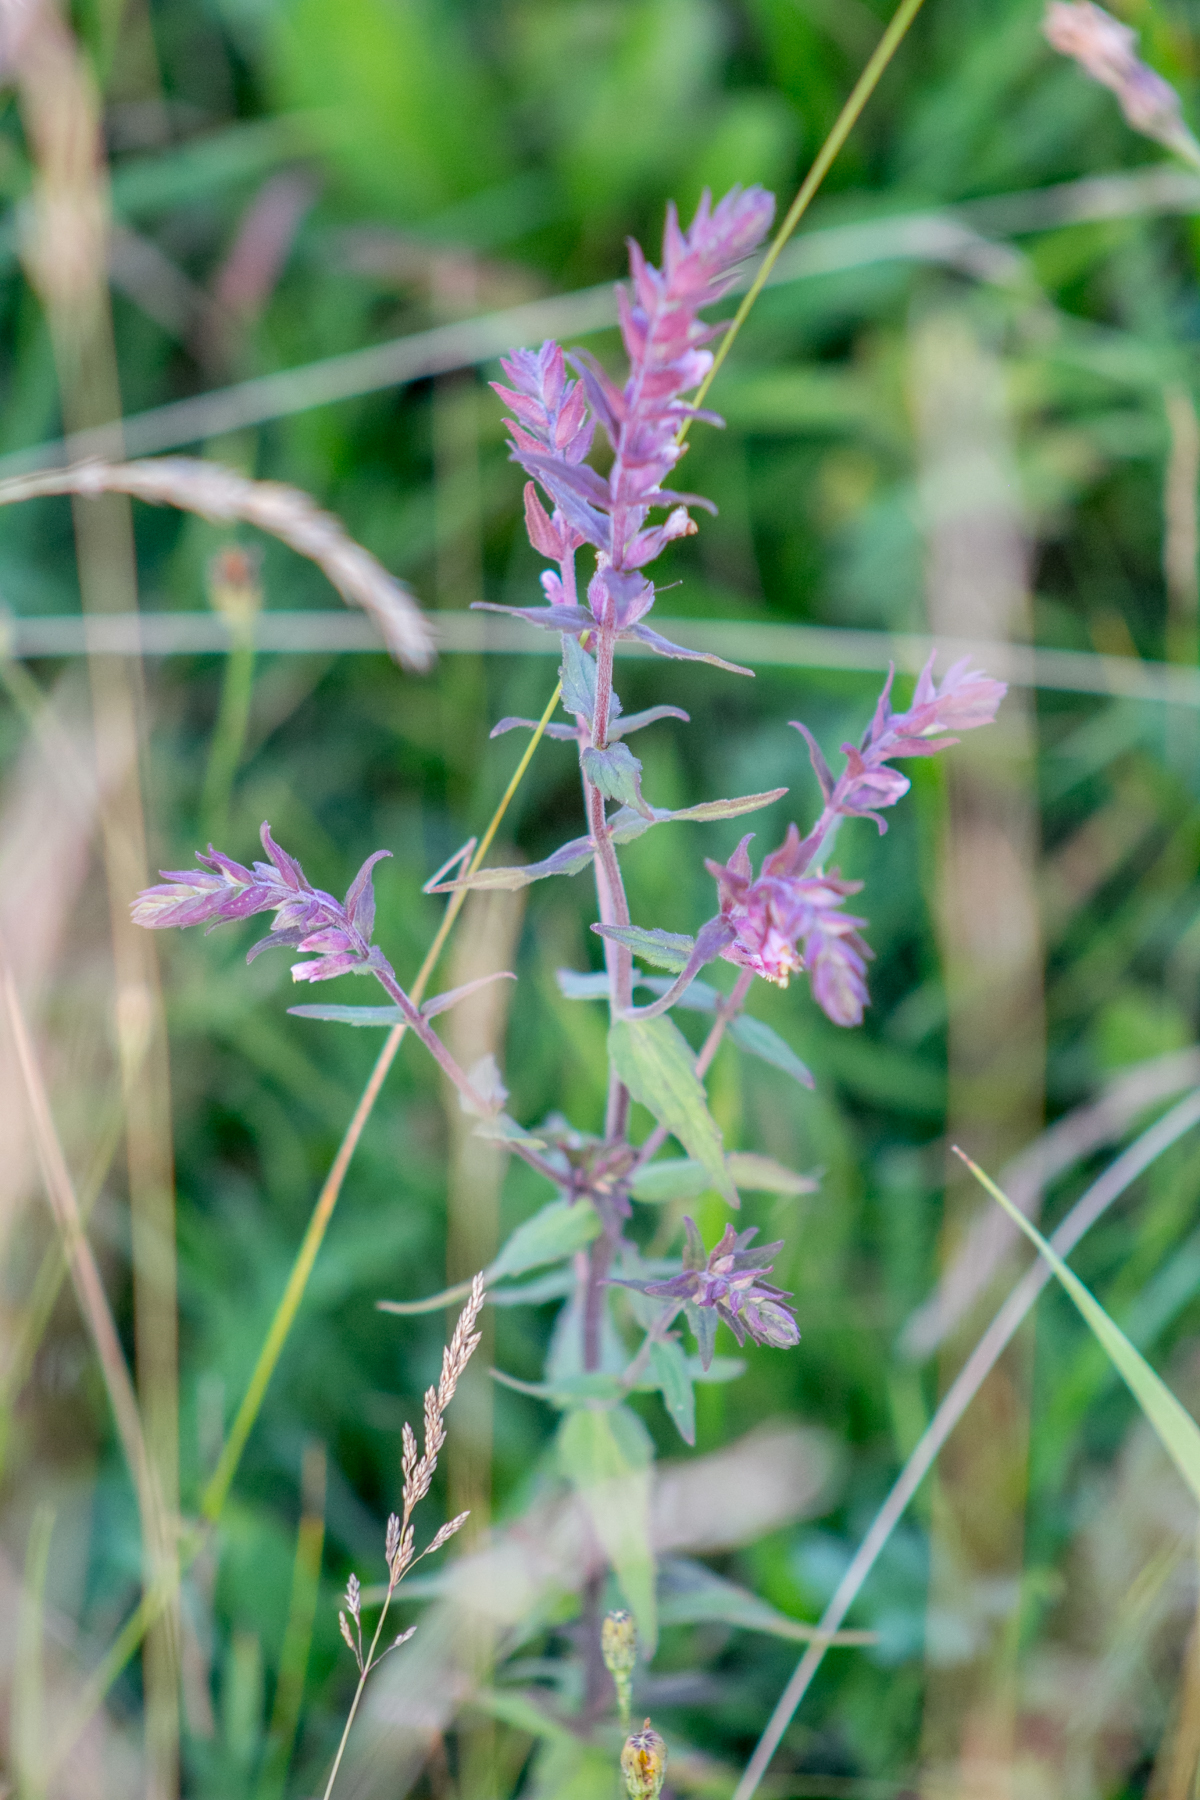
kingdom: Plantae
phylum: Tracheophyta
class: Magnoliopsida
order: Lamiales
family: Orobanchaceae
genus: Odontites
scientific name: Odontites vulgaris
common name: Broomrape
